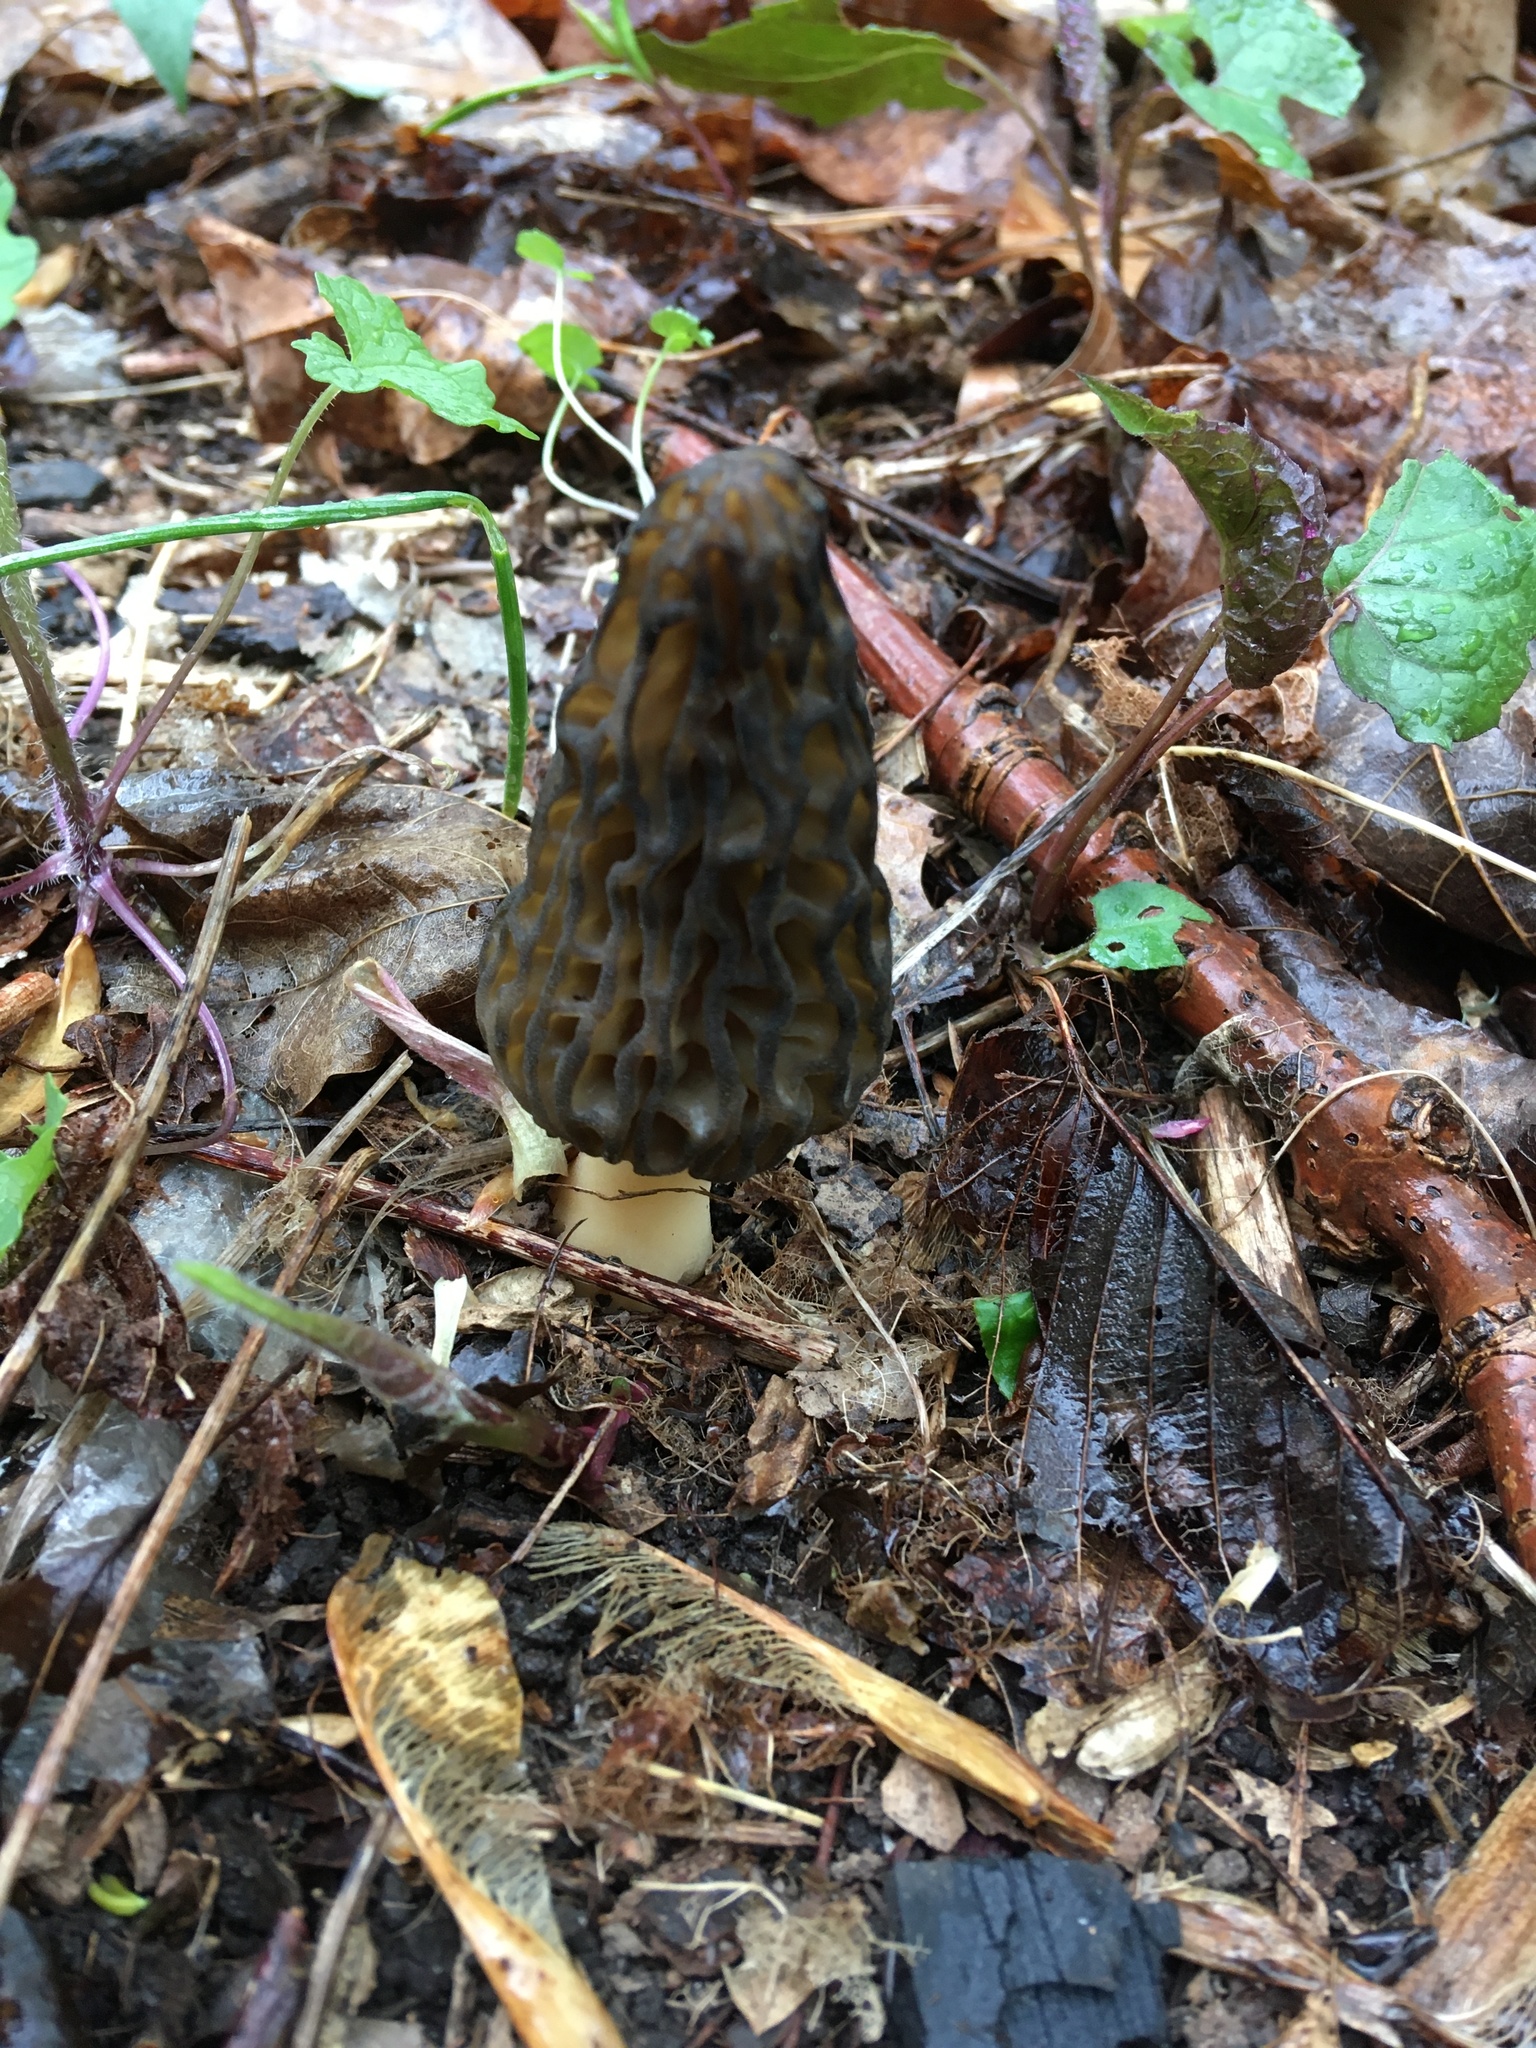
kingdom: Fungi
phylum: Ascomycota
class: Pezizomycetes
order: Pezizales
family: Morchellaceae
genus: Morchella
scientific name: Morchella angusticeps
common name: Black morel
